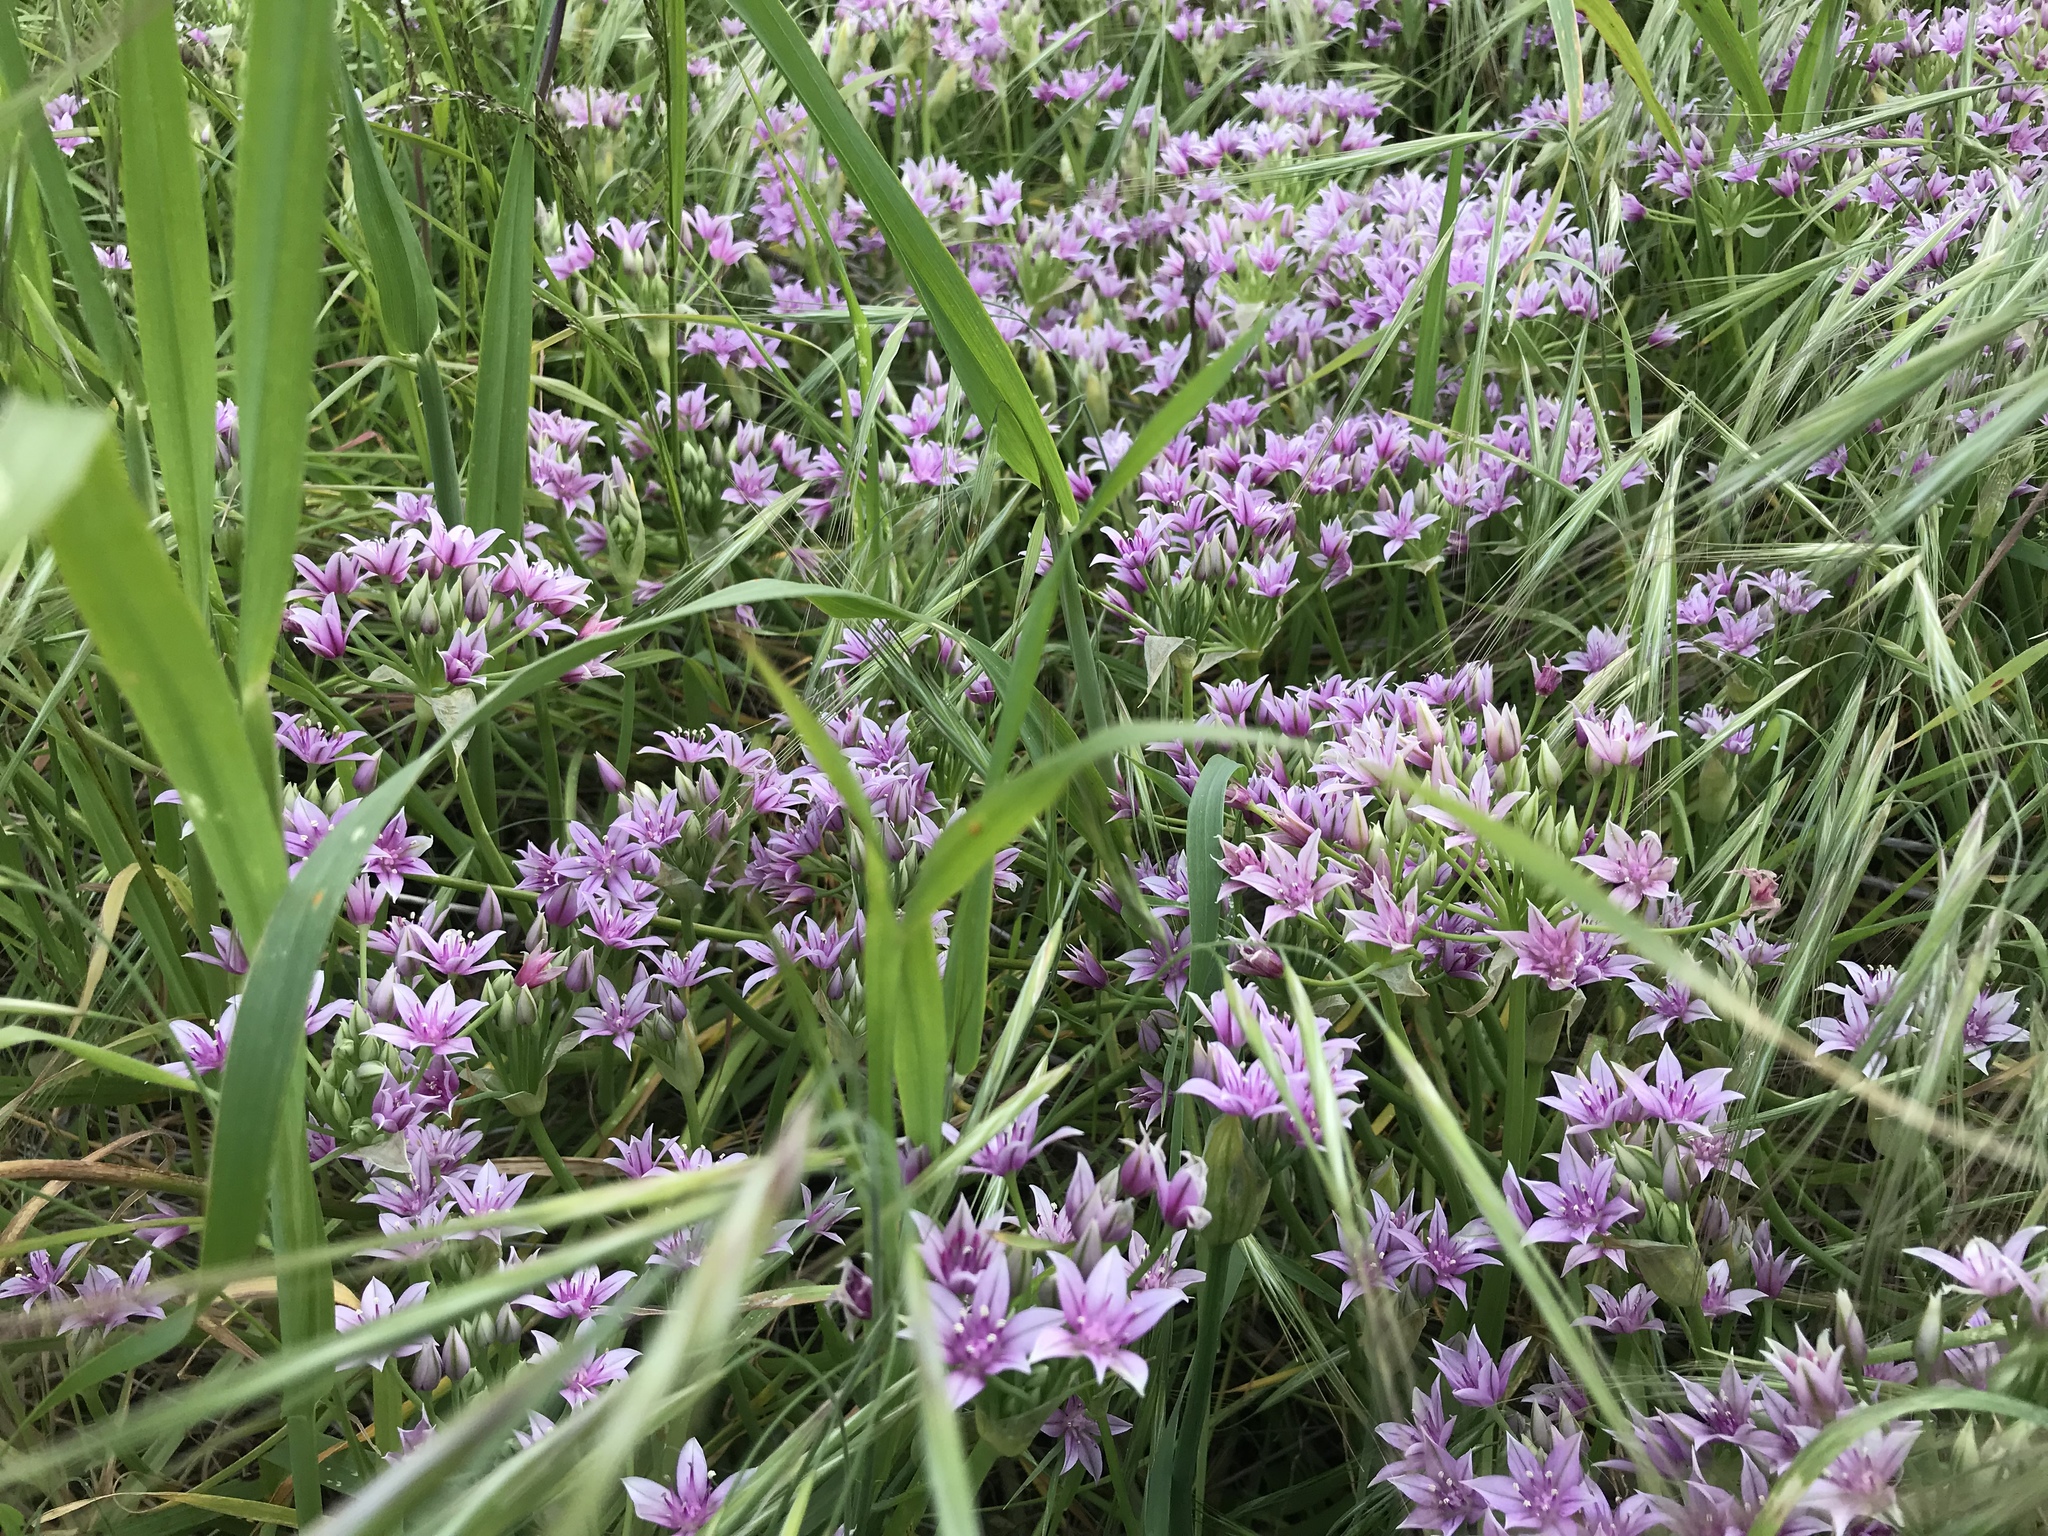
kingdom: Plantae
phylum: Tracheophyta
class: Liliopsida
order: Asparagales
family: Amaryllidaceae
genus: Allium
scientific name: Allium praecox
